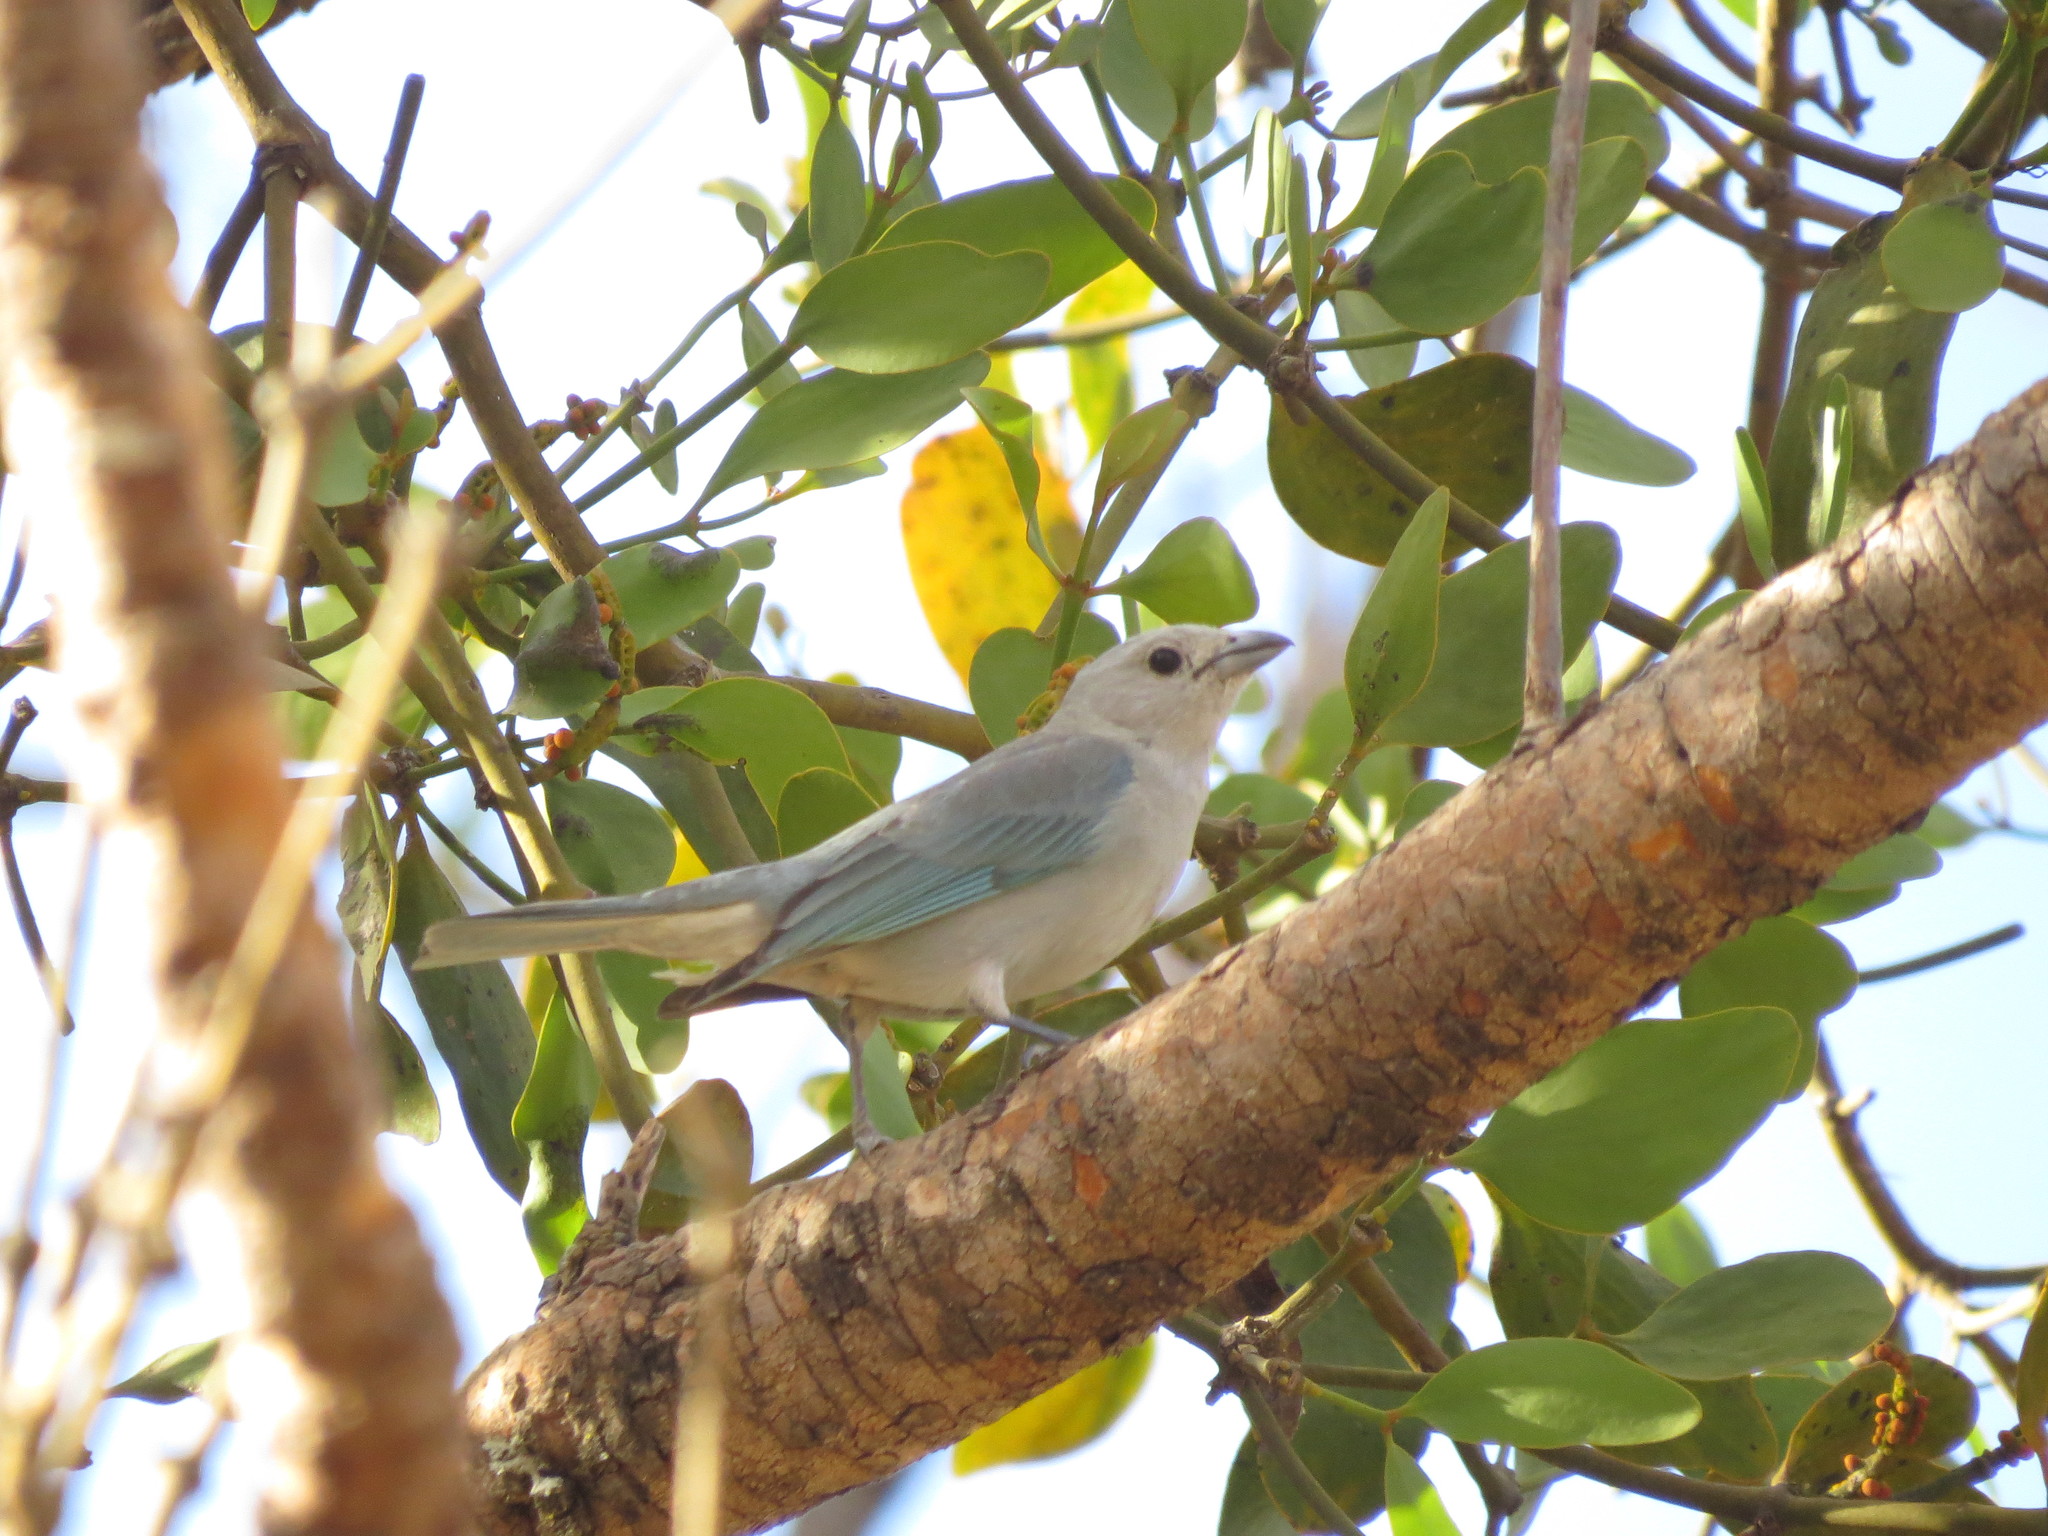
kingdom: Animalia
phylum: Chordata
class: Aves
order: Passeriformes
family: Thraupidae
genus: Thraupis
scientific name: Thraupis sayaca
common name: Sayaca tanager
